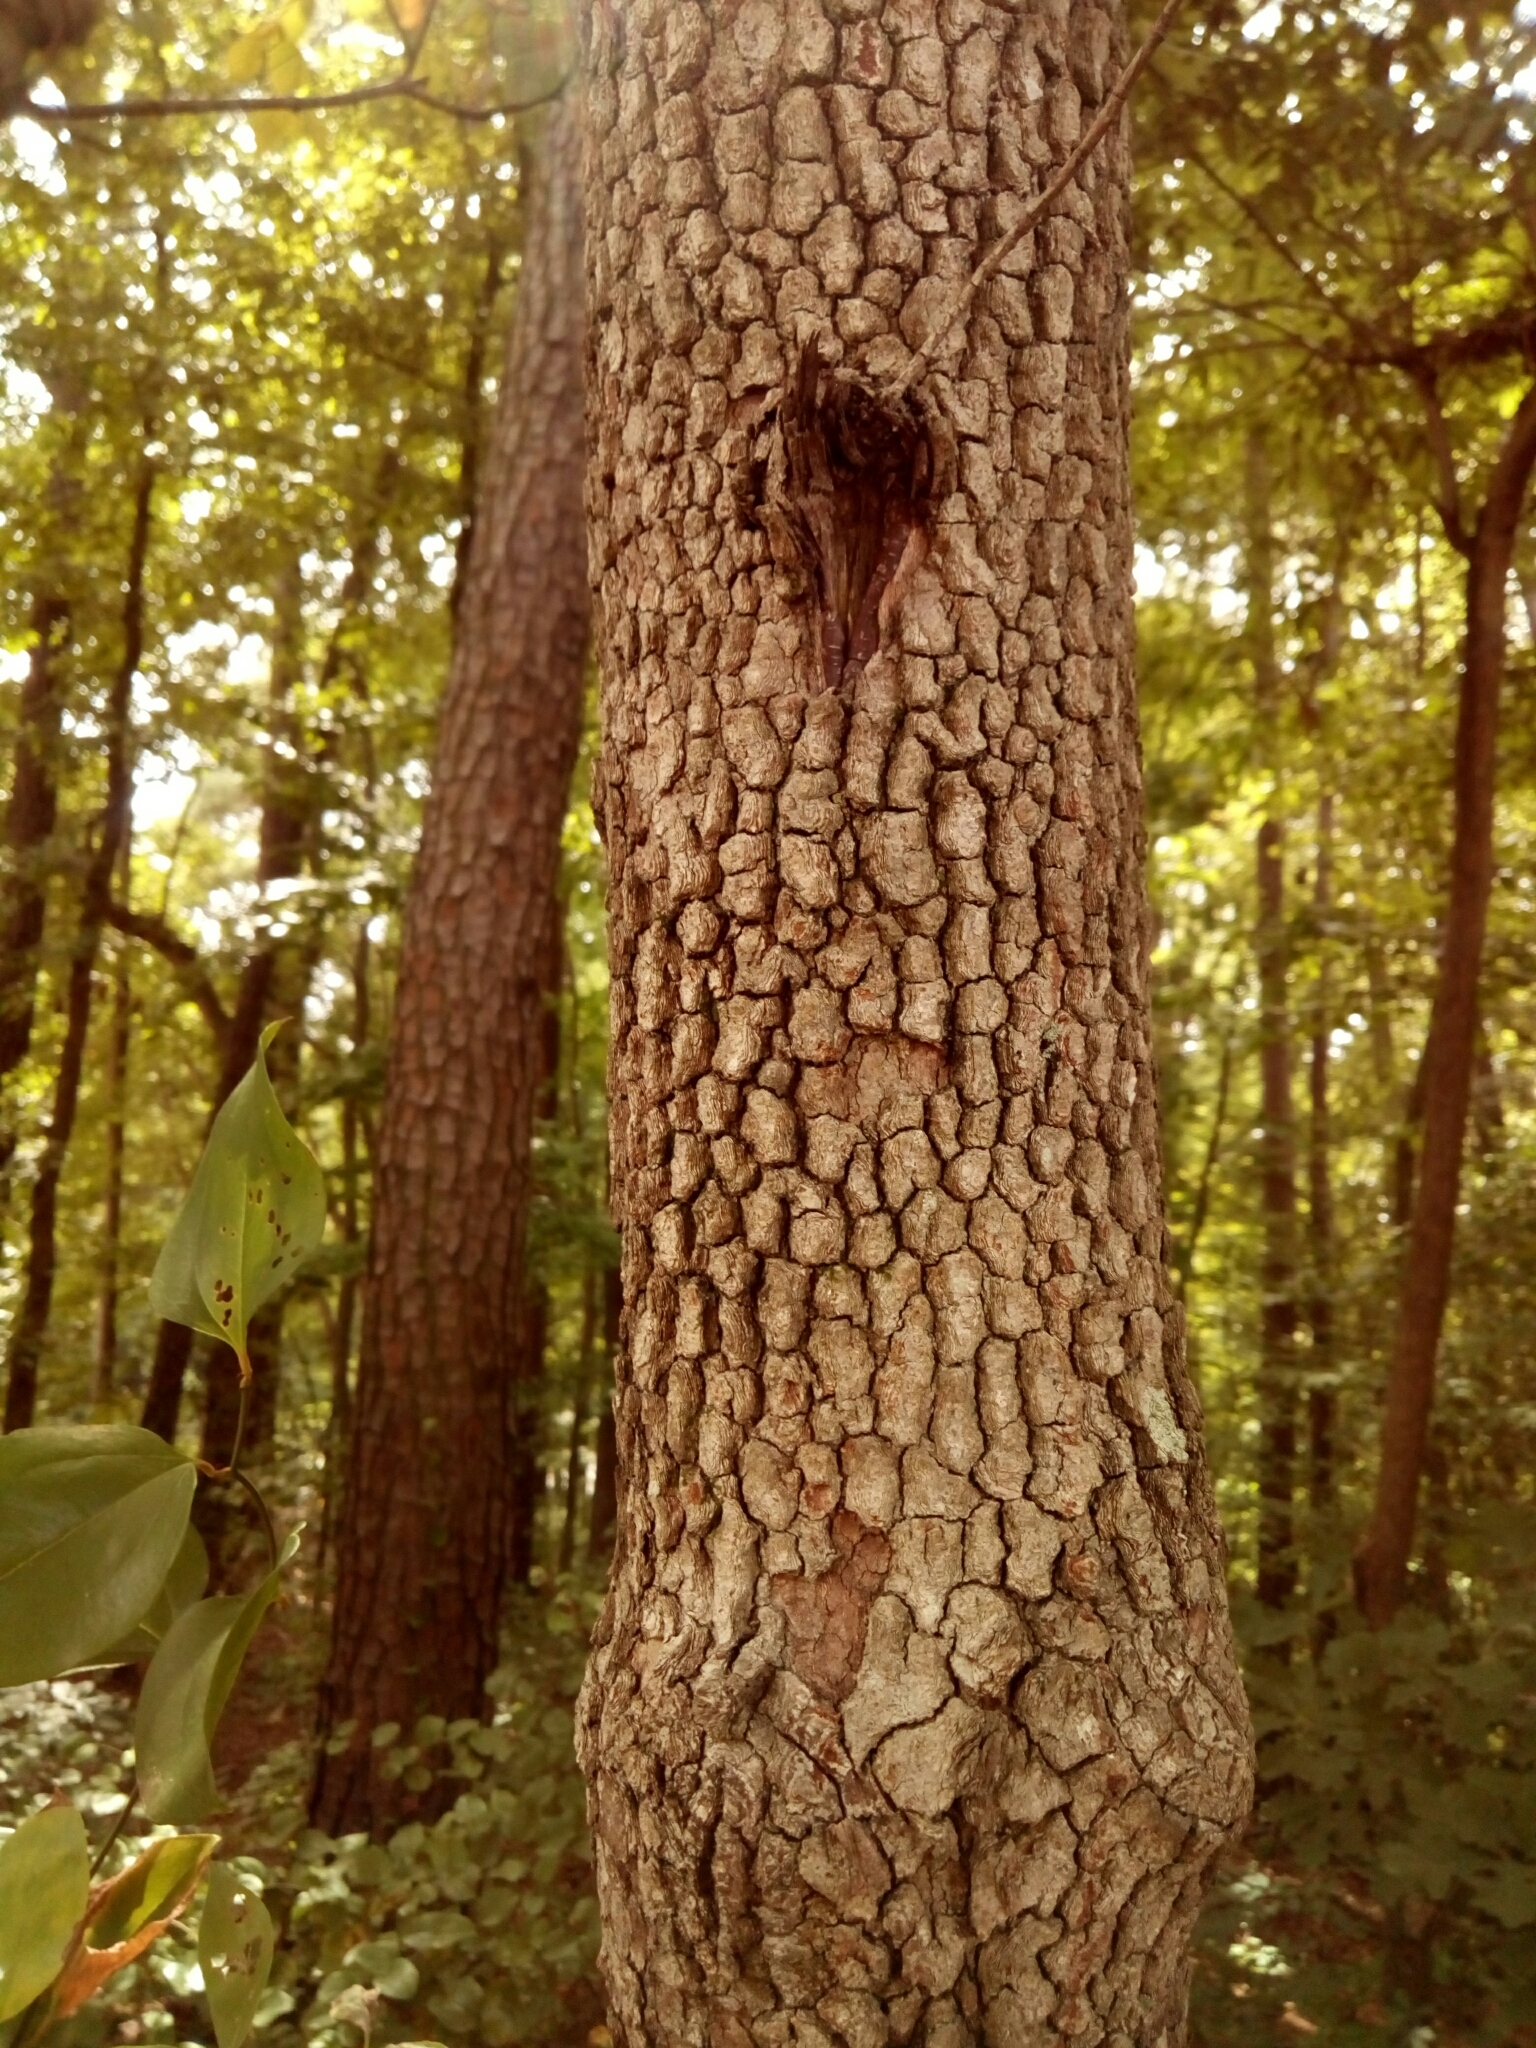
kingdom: Plantae
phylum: Tracheophyta
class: Magnoliopsida
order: Cornales
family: Cornaceae
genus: Cornus
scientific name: Cornus florida
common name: Flowering dogwood
